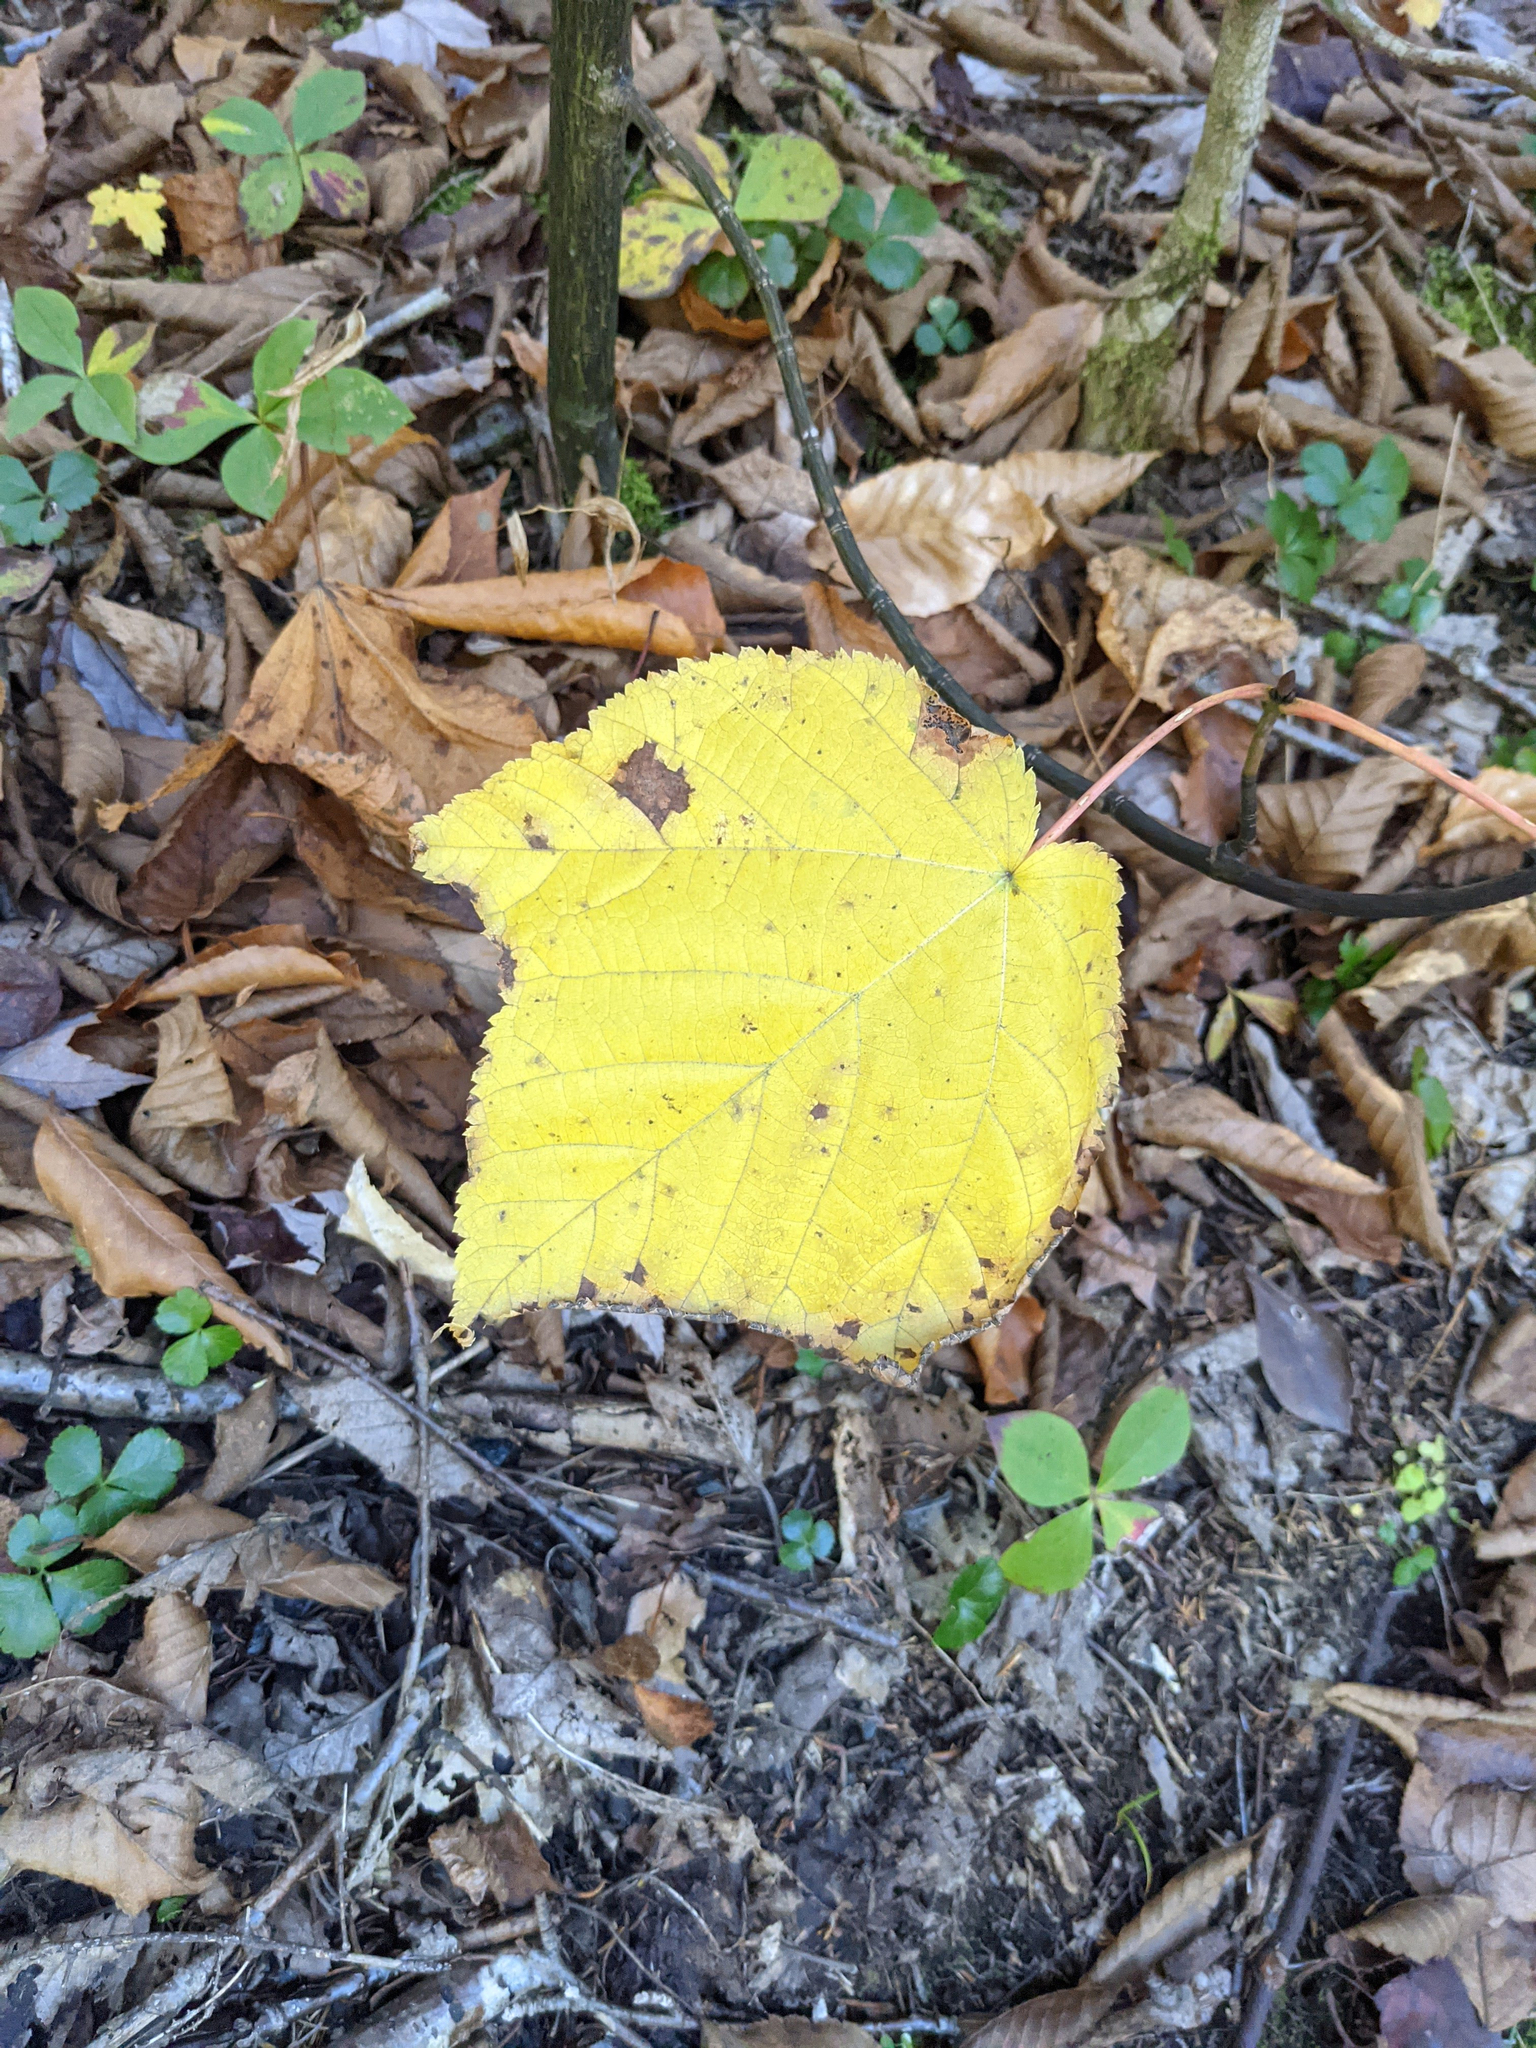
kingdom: Plantae
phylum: Tracheophyta
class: Magnoliopsida
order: Sapindales
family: Sapindaceae
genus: Acer
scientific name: Acer pensylvanicum
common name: Moosewood
